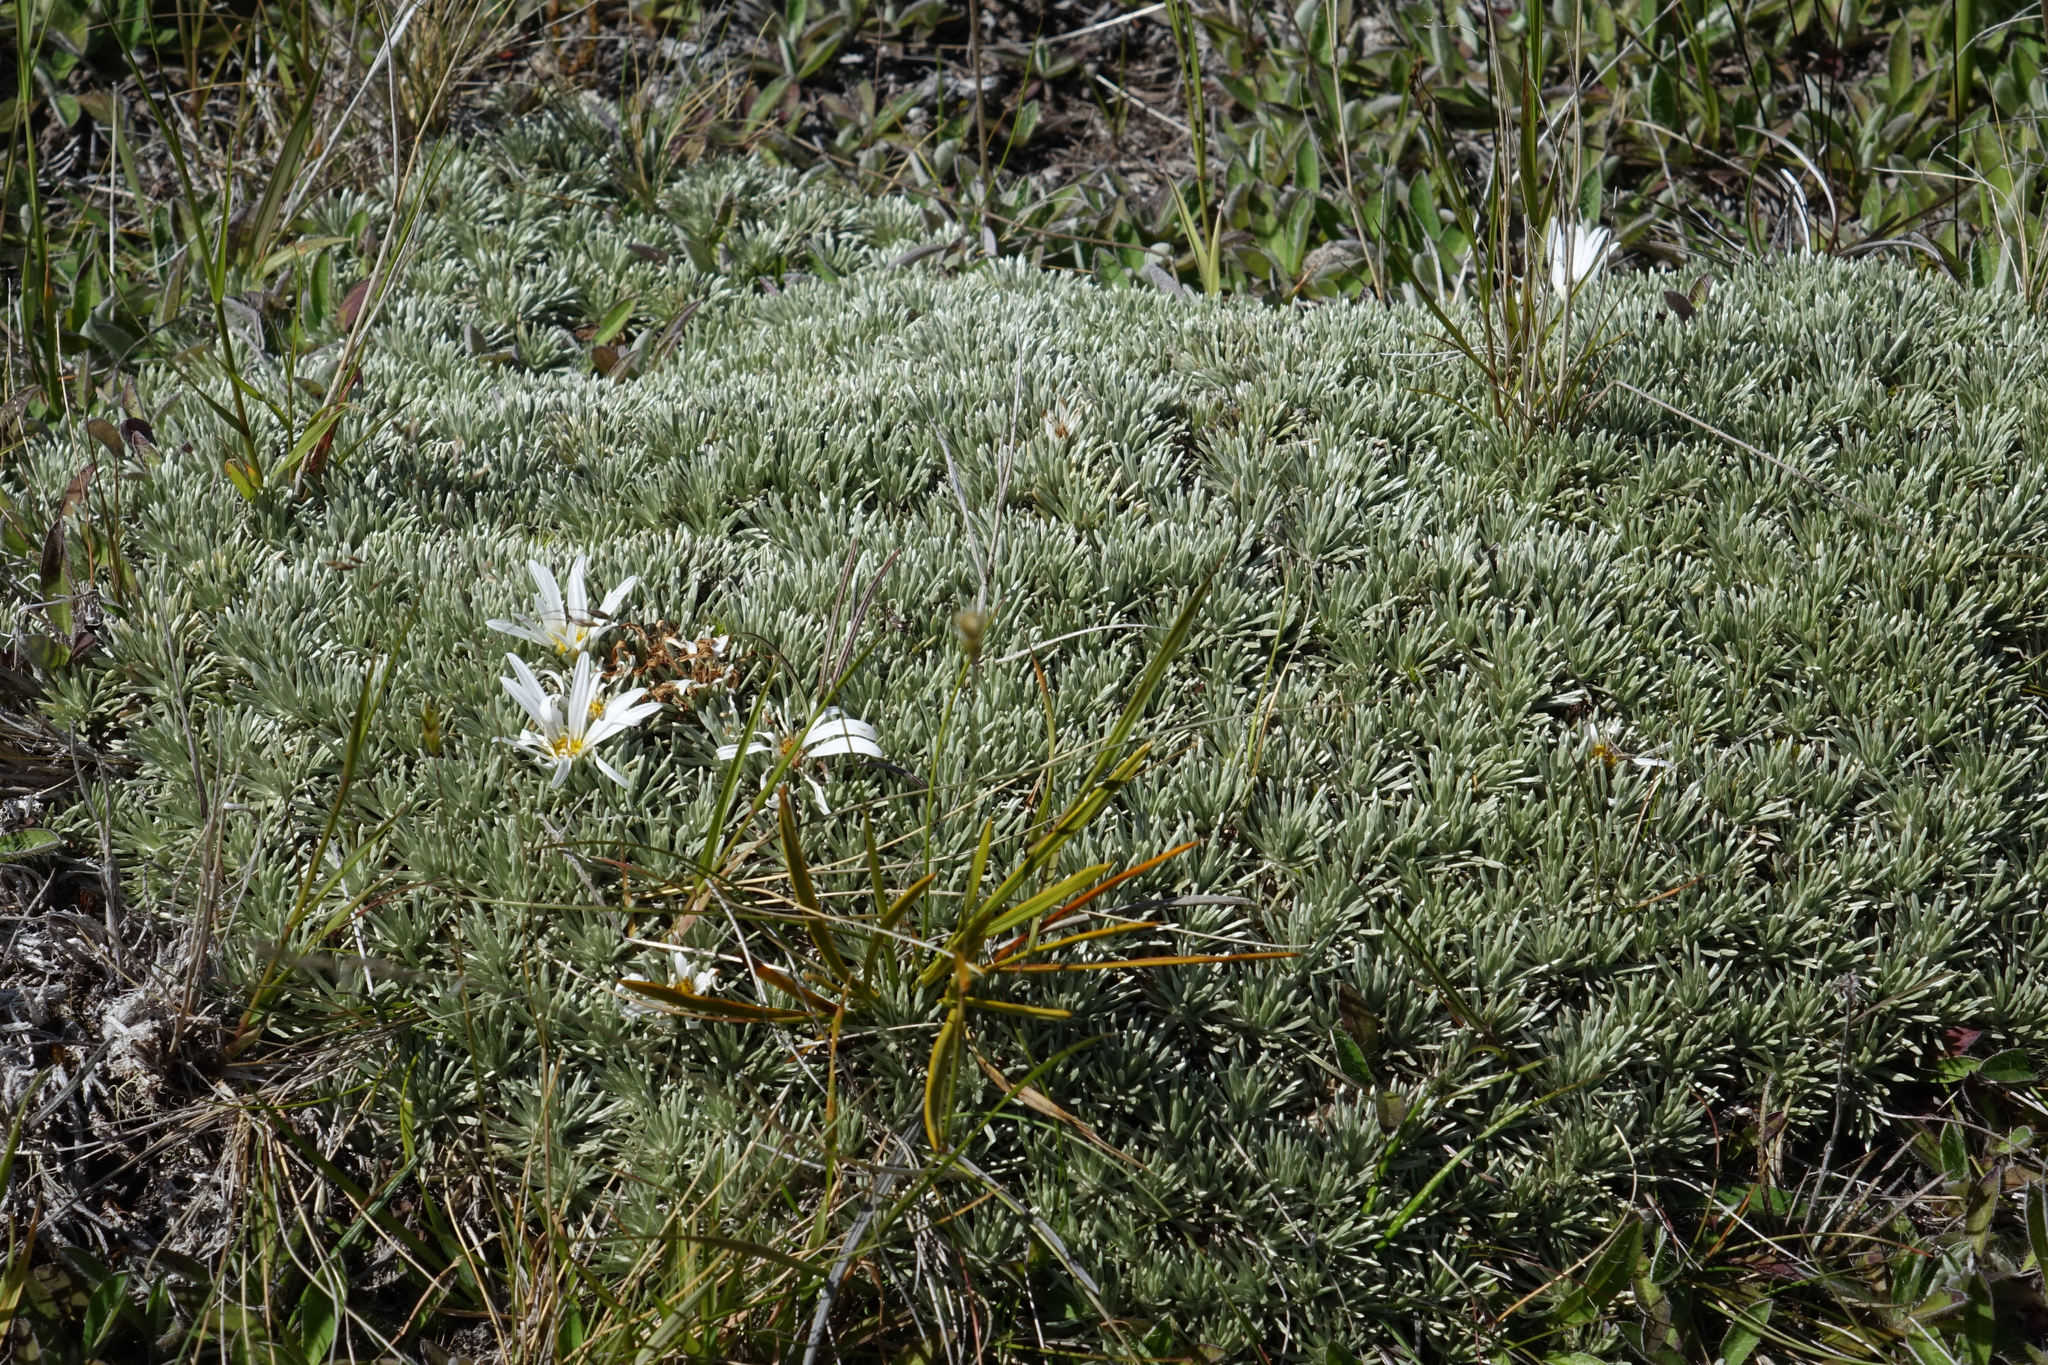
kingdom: Plantae
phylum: Tracheophyta
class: Magnoliopsida
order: Asterales
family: Asteraceae
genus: Celmisia
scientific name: Celmisia sessiliflora
